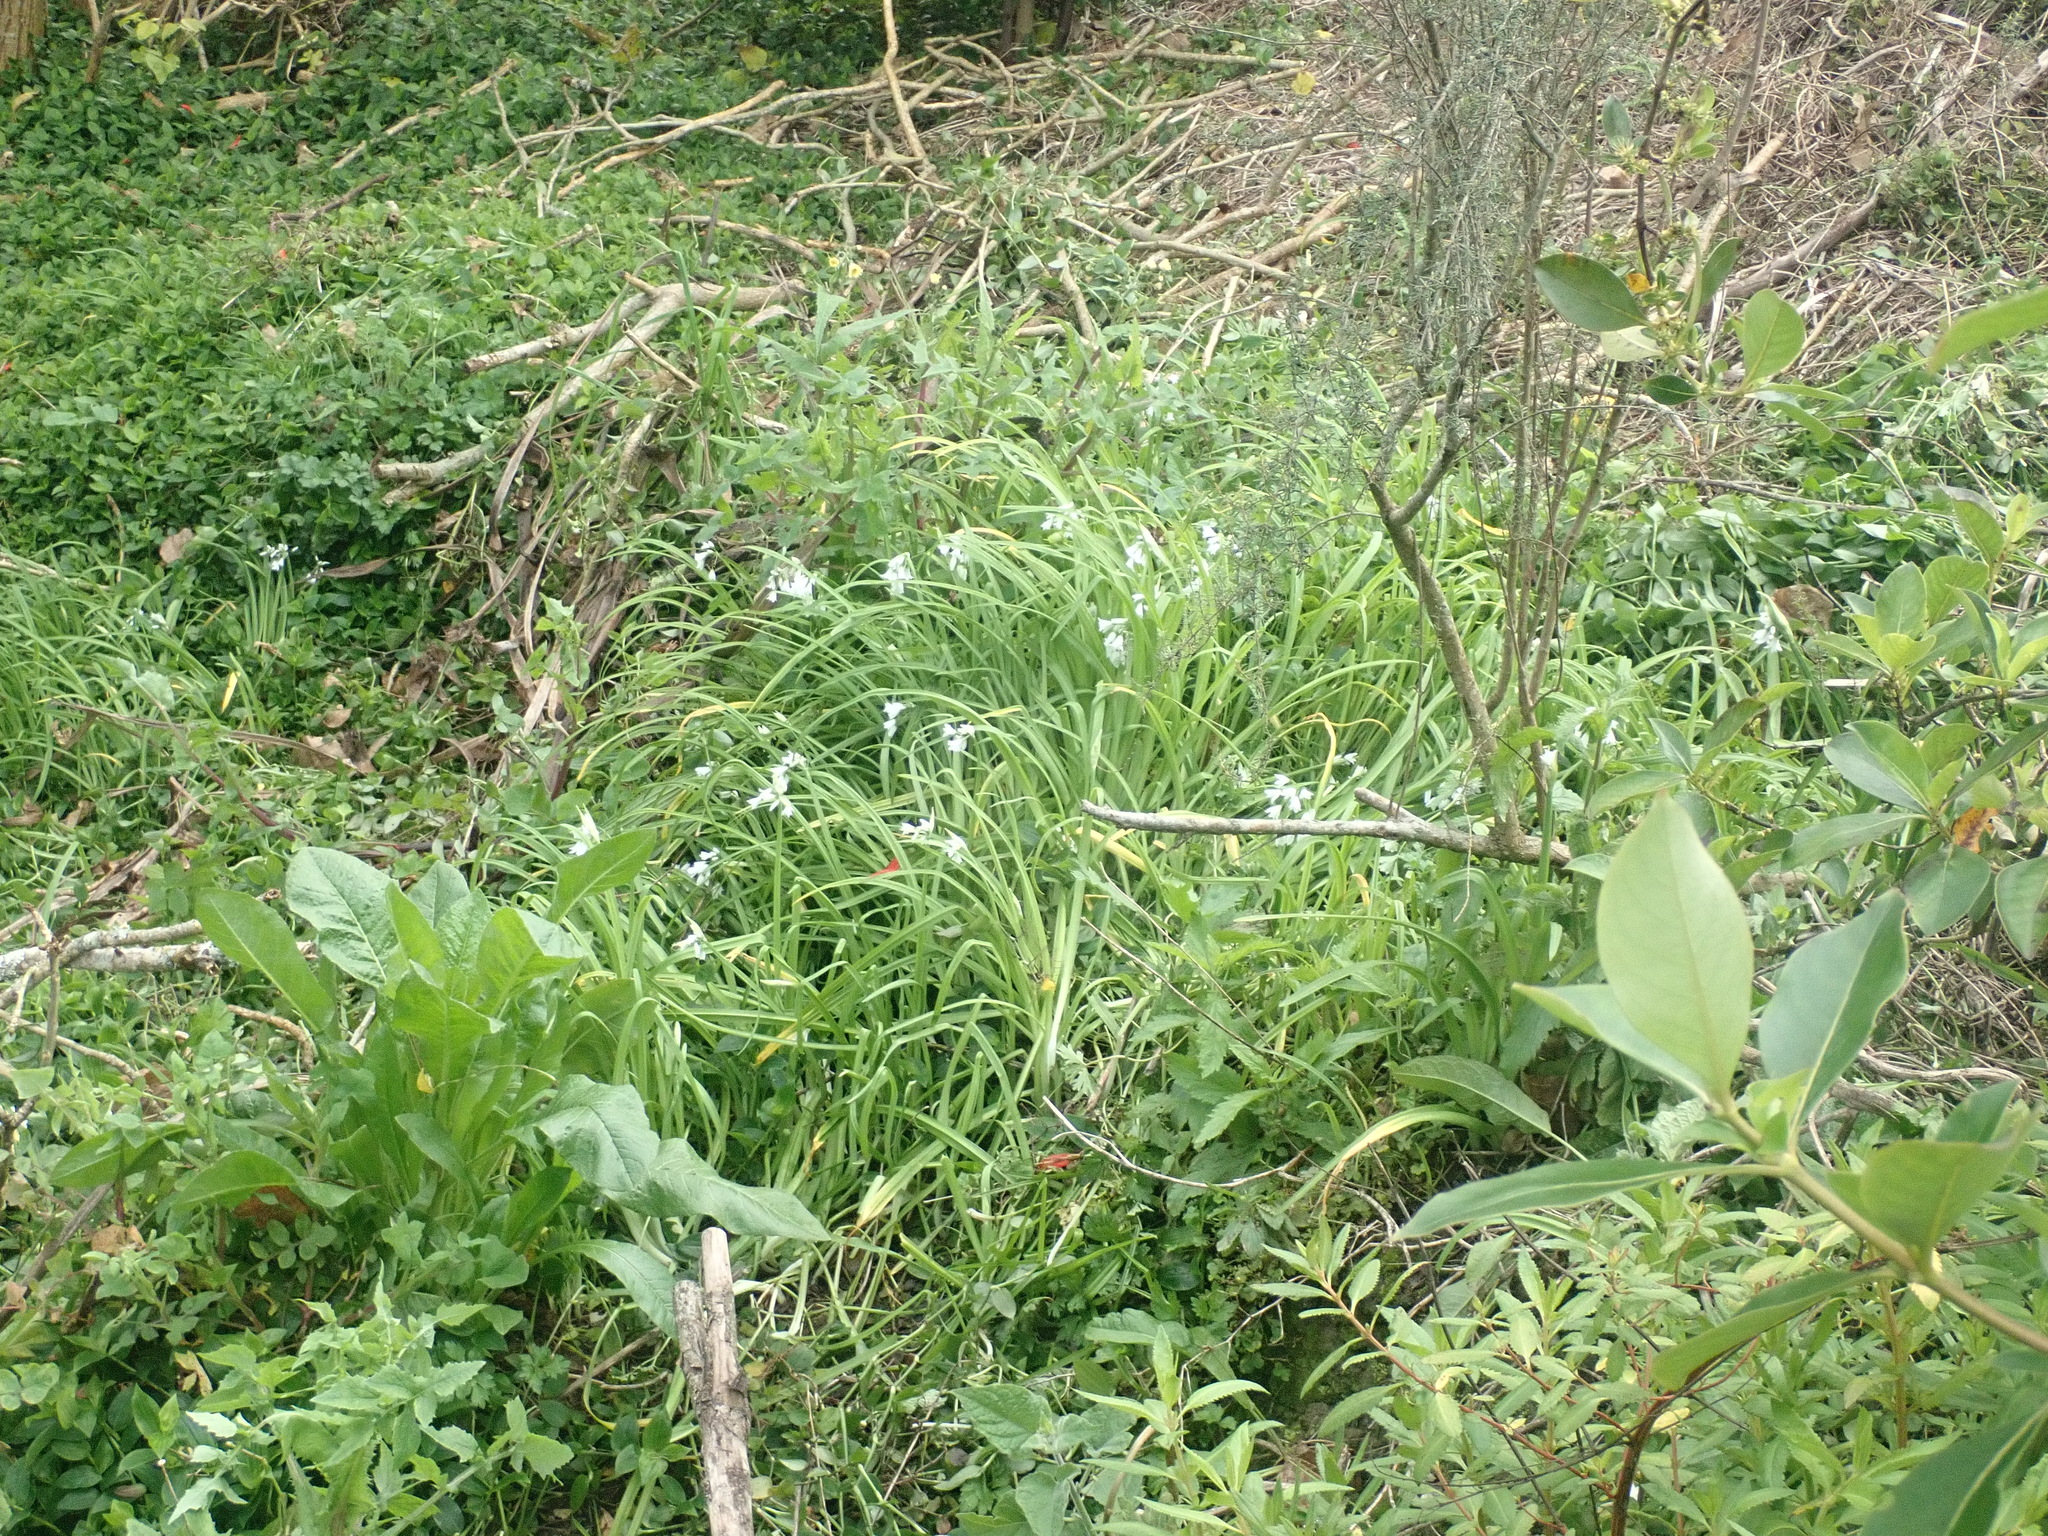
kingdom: Plantae
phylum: Tracheophyta
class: Liliopsida
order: Asparagales
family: Amaryllidaceae
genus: Allium
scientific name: Allium triquetrum
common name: Three-cornered garlic
